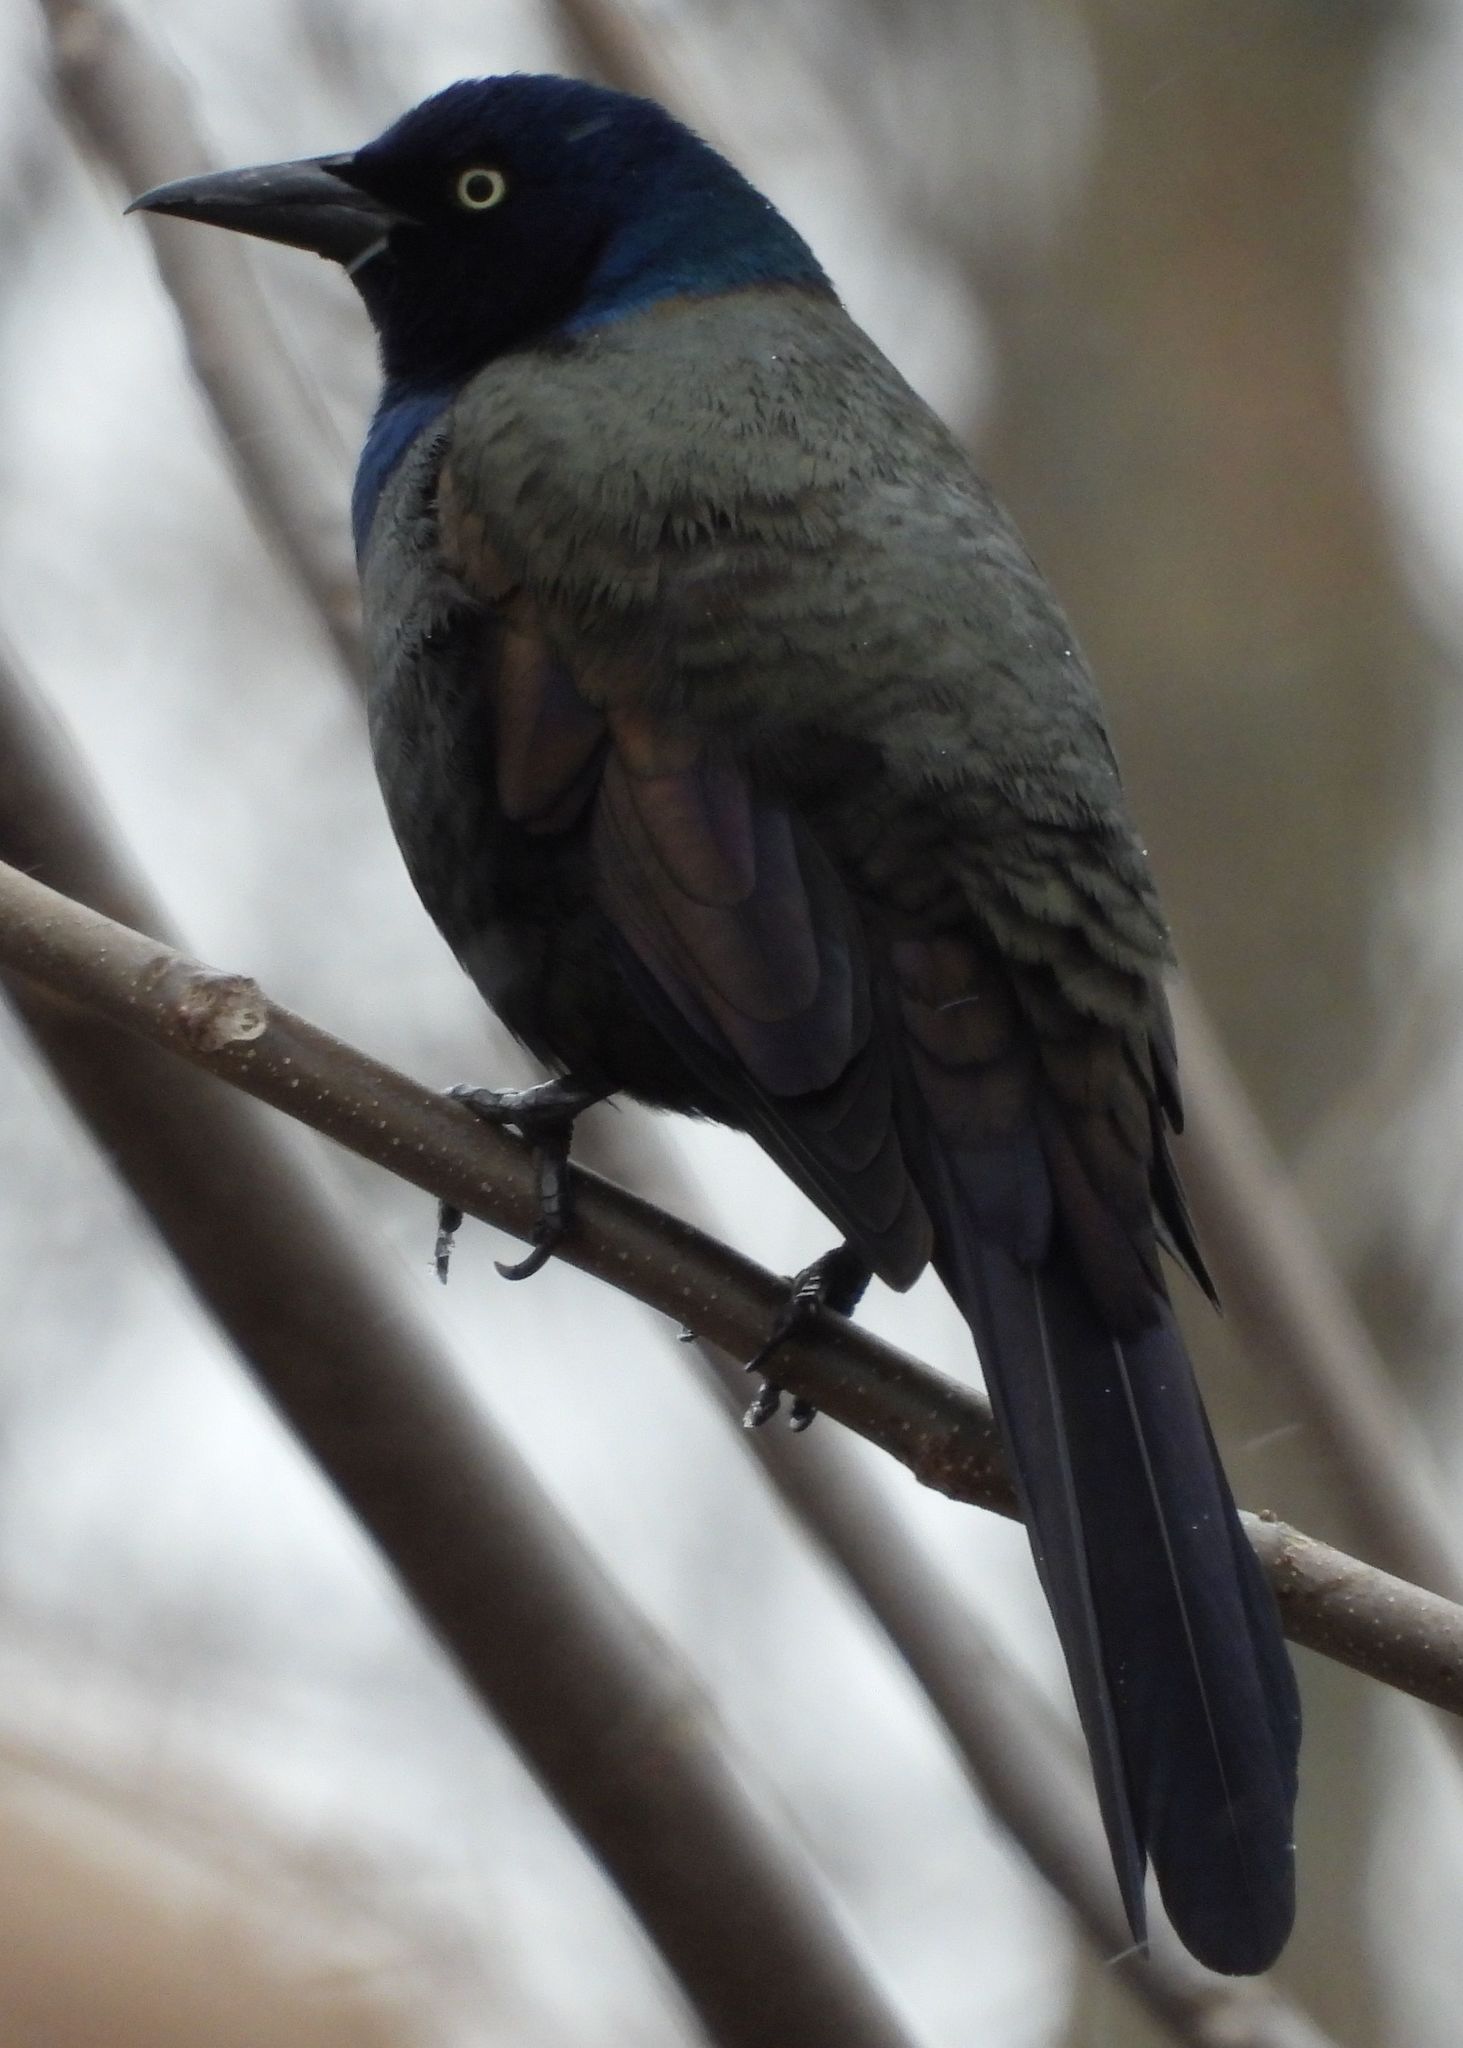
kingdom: Animalia
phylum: Chordata
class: Aves
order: Passeriformes
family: Icteridae
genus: Quiscalus
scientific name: Quiscalus quiscula
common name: Common grackle
